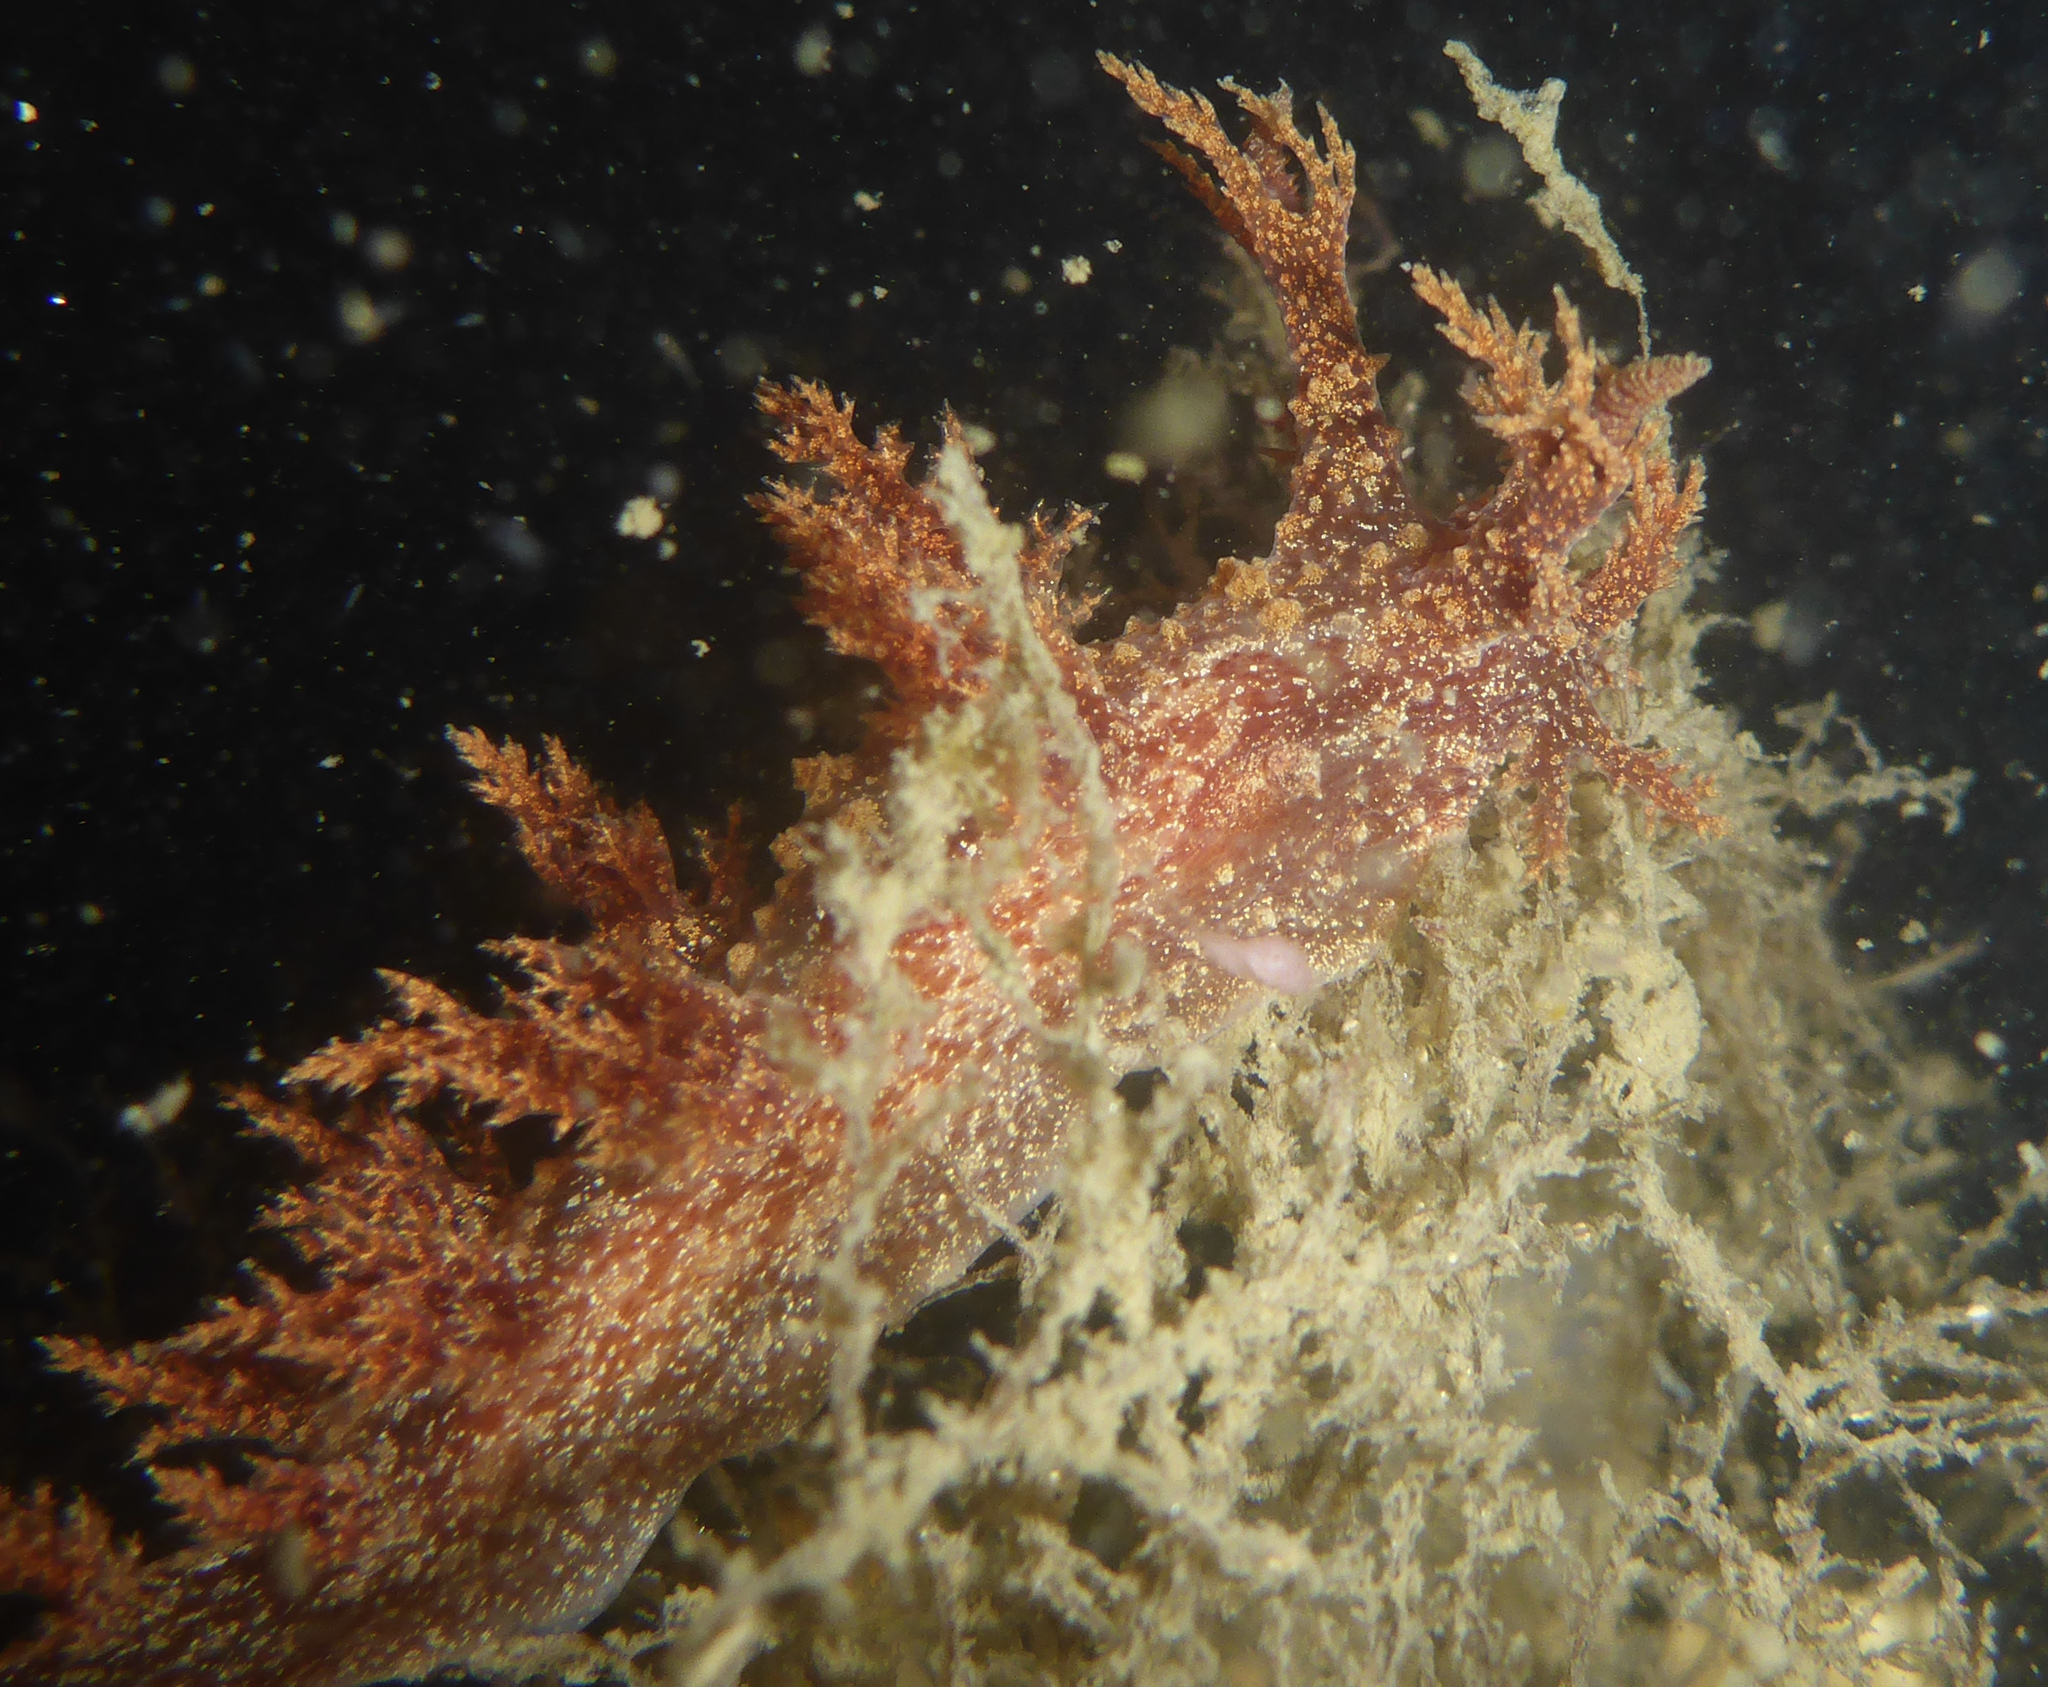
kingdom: Animalia
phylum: Mollusca
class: Gastropoda
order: Nudibranchia
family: Dendronotidae
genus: Dendronotus
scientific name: Dendronotus venustus
